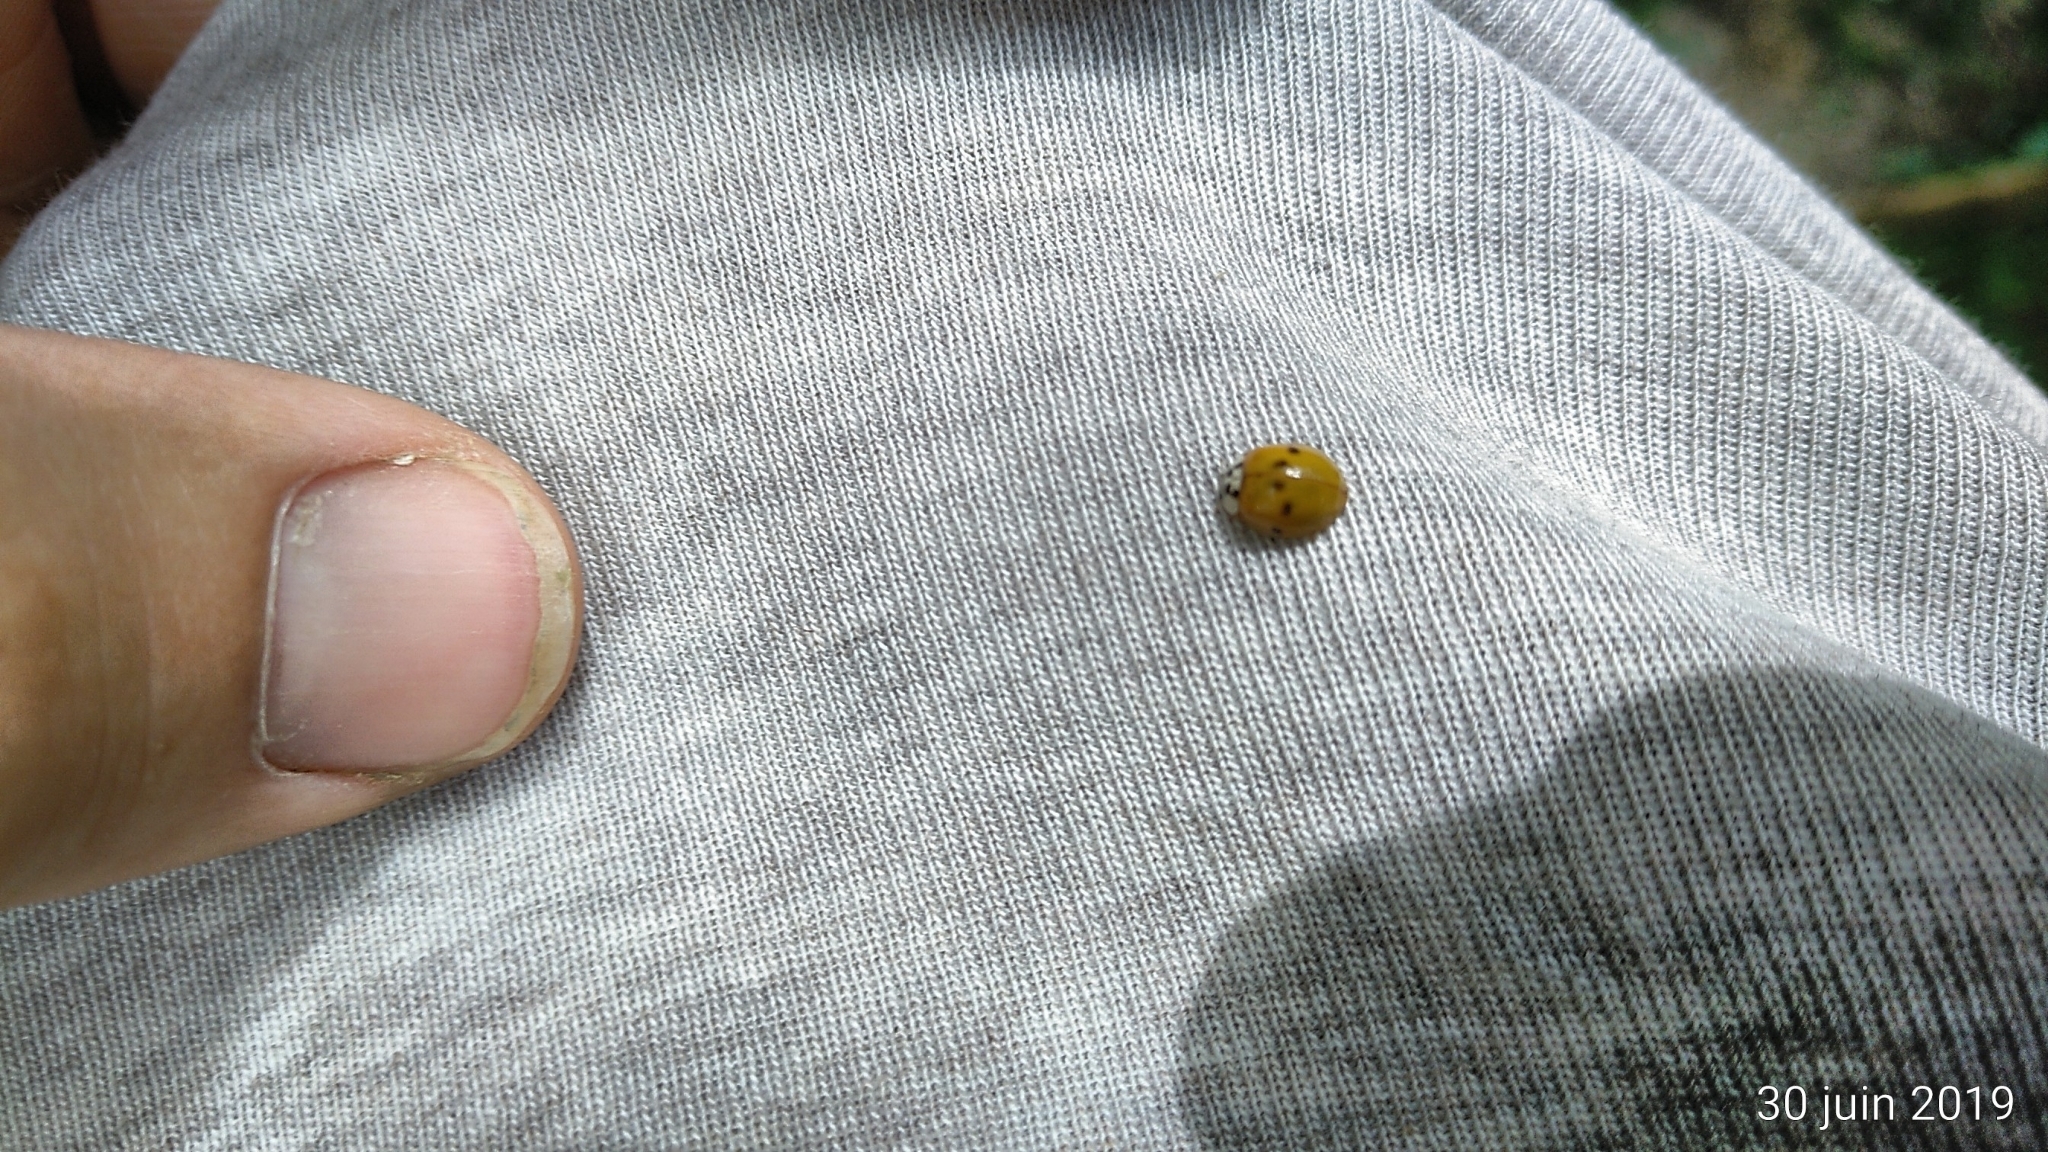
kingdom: Animalia
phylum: Arthropoda
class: Insecta
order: Coleoptera
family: Coccinellidae
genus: Harmonia
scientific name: Harmonia axyridis
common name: Harlequin ladybird
